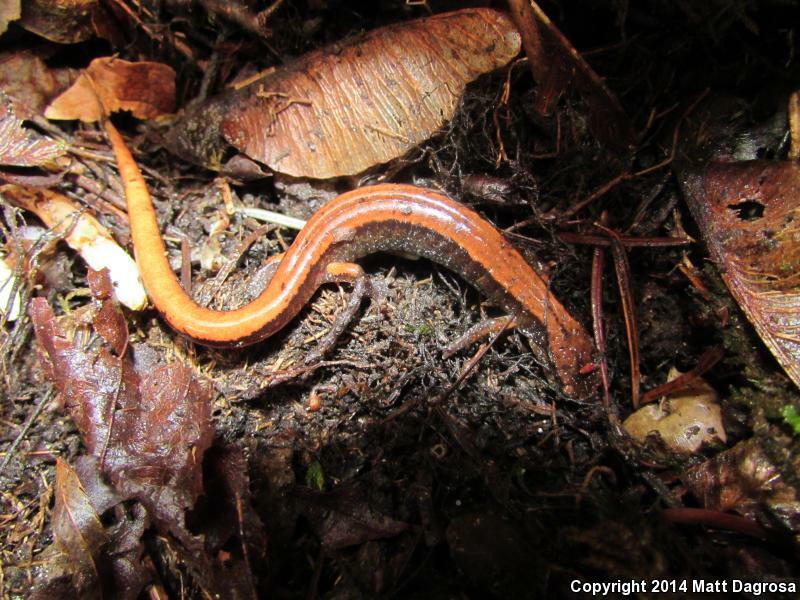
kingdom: Animalia
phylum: Chordata
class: Amphibia
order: Caudata
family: Plethodontidae
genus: Plethodon
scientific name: Plethodon vehiculum
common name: Western red-backed salamander
